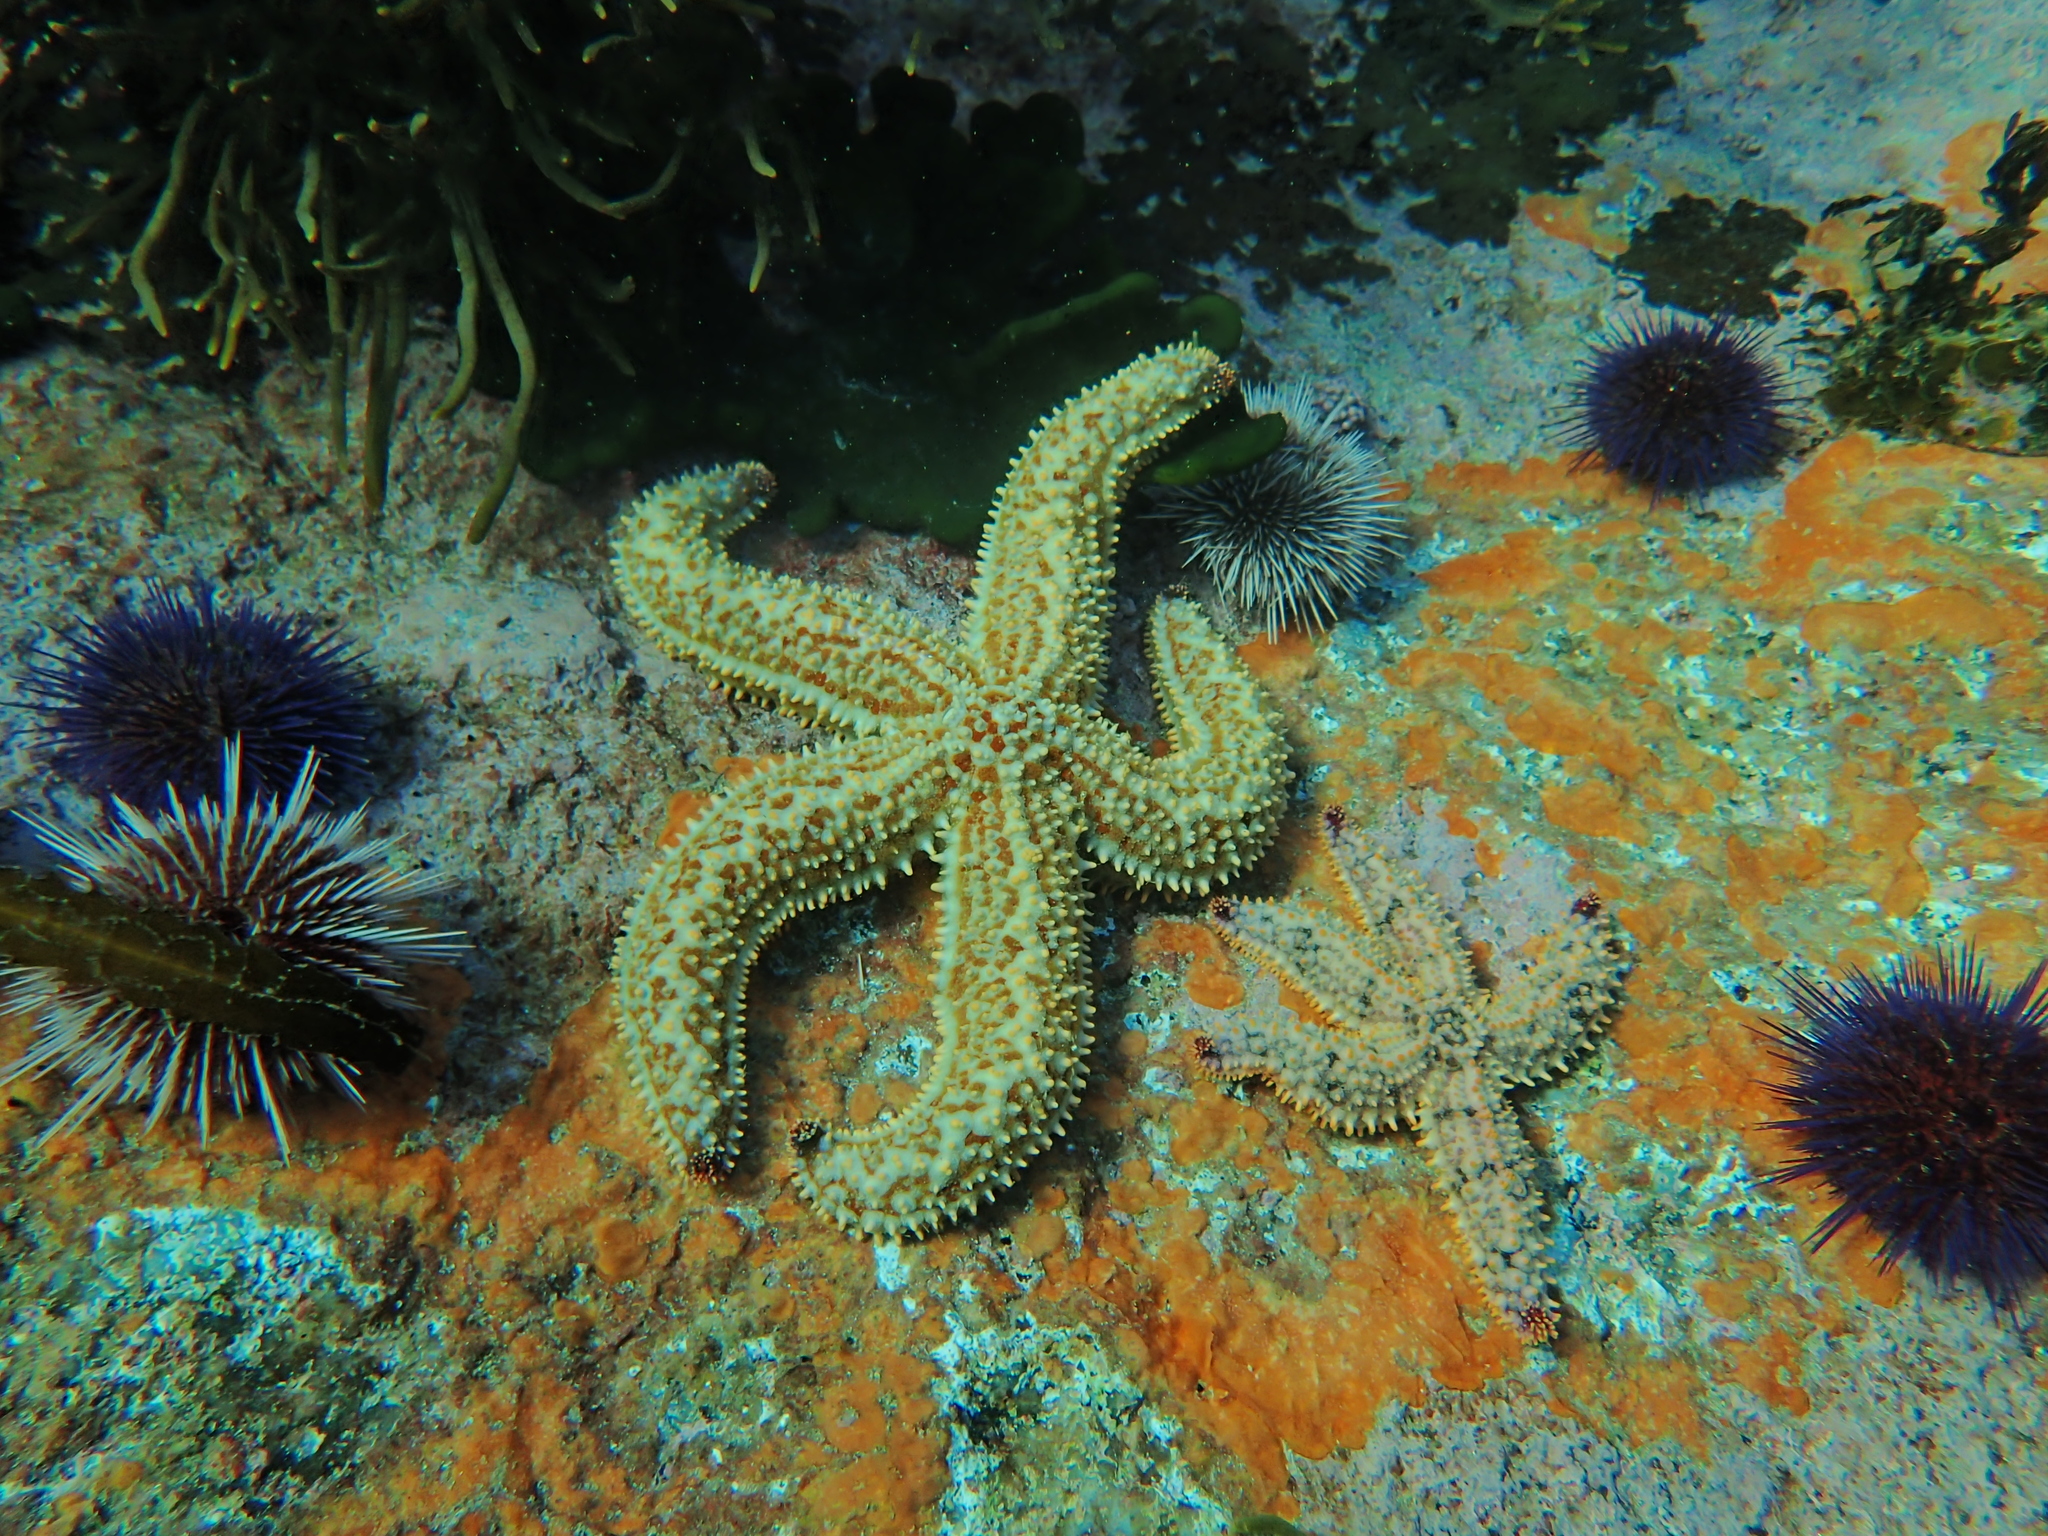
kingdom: Animalia
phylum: Echinodermata
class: Asteroidea
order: Forcipulatida
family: Asteriidae
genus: Marthasterias
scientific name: Marthasterias africana
